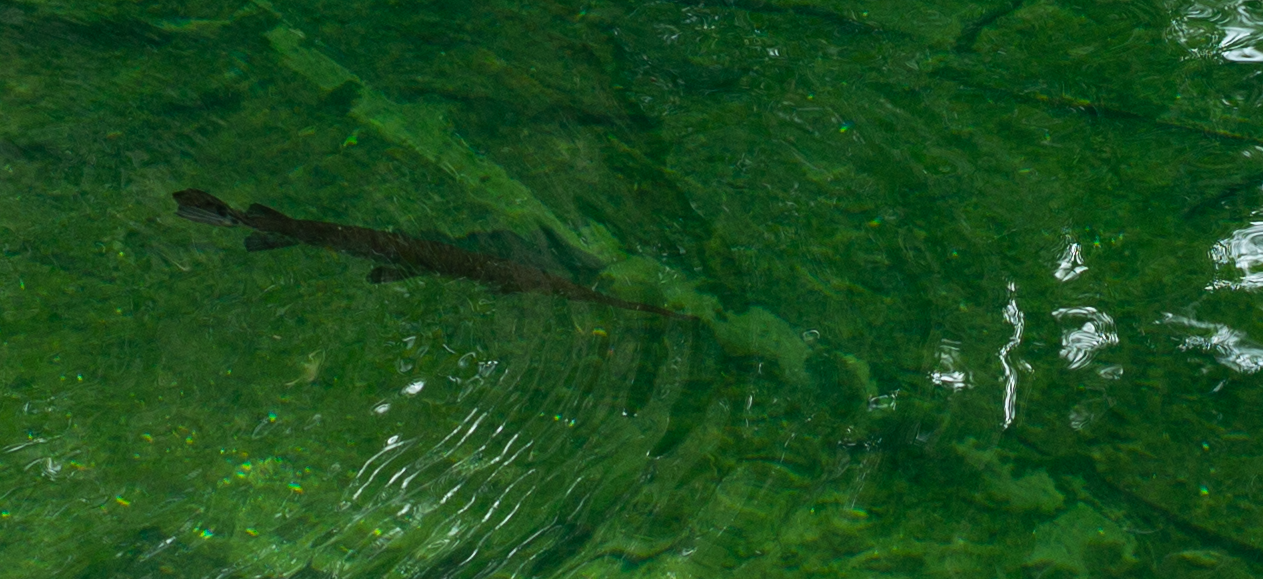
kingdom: Animalia
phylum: Chordata
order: Lepisosteiformes
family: Lepisosteidae
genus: Lepisosteus
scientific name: Lepisosteus osseus
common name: Longnose gar
